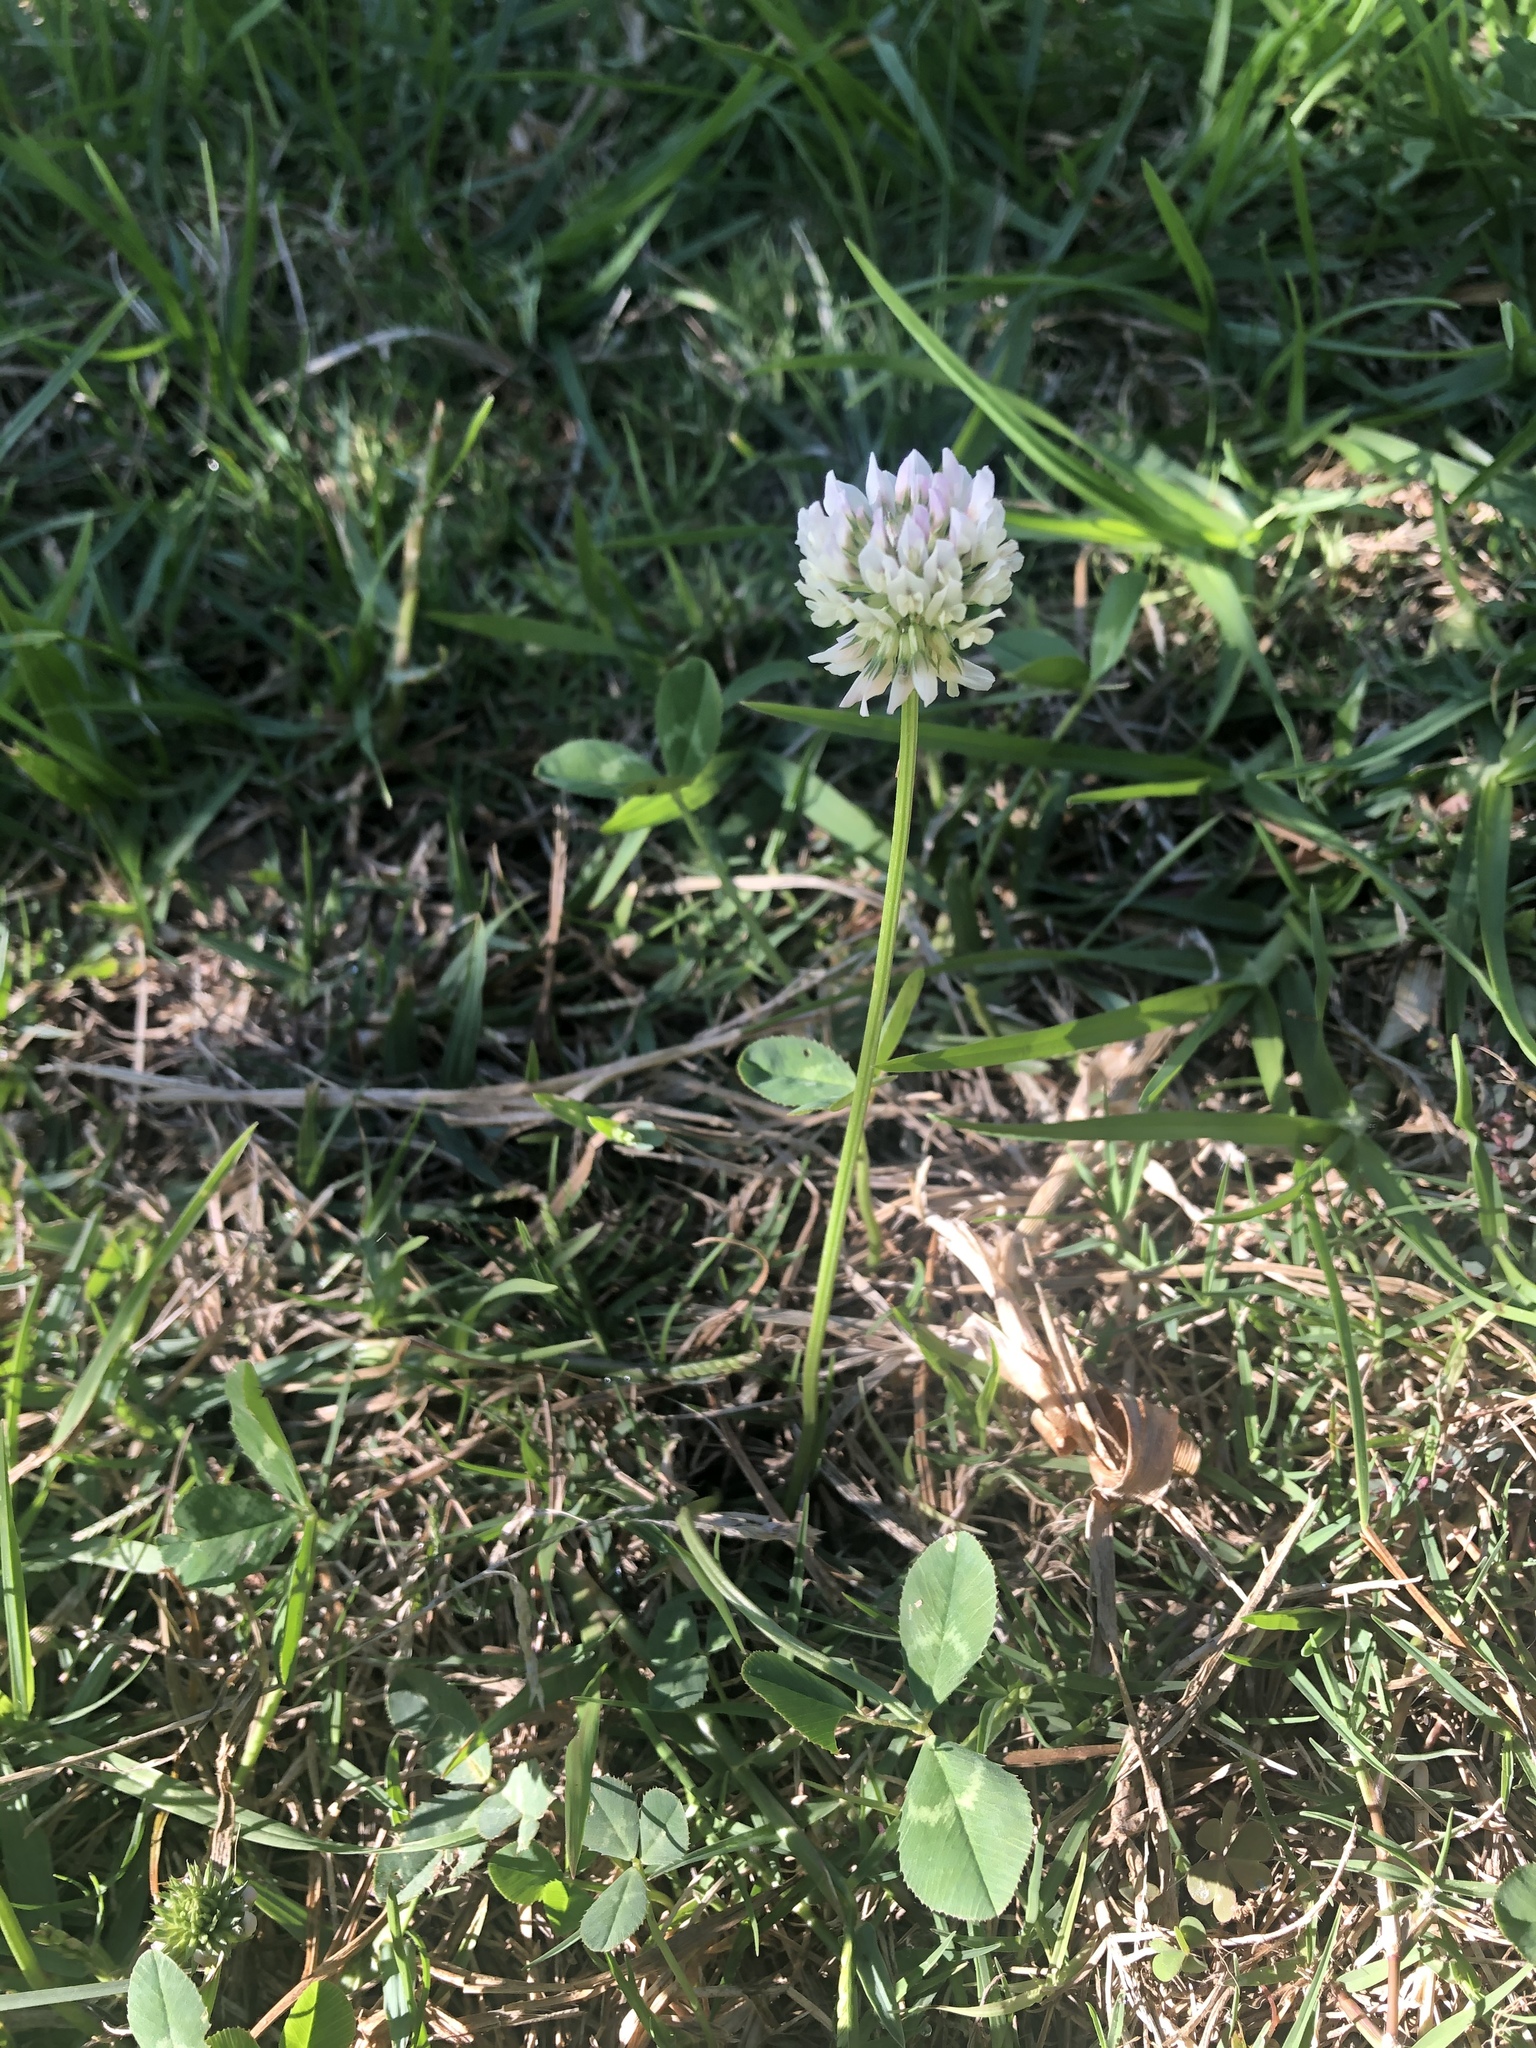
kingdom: Plantae
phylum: Tracheophyta
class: Magnoliopsida
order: Fabales
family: Fabaceae
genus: Trifolium
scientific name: Trifolium repens
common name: White clover
